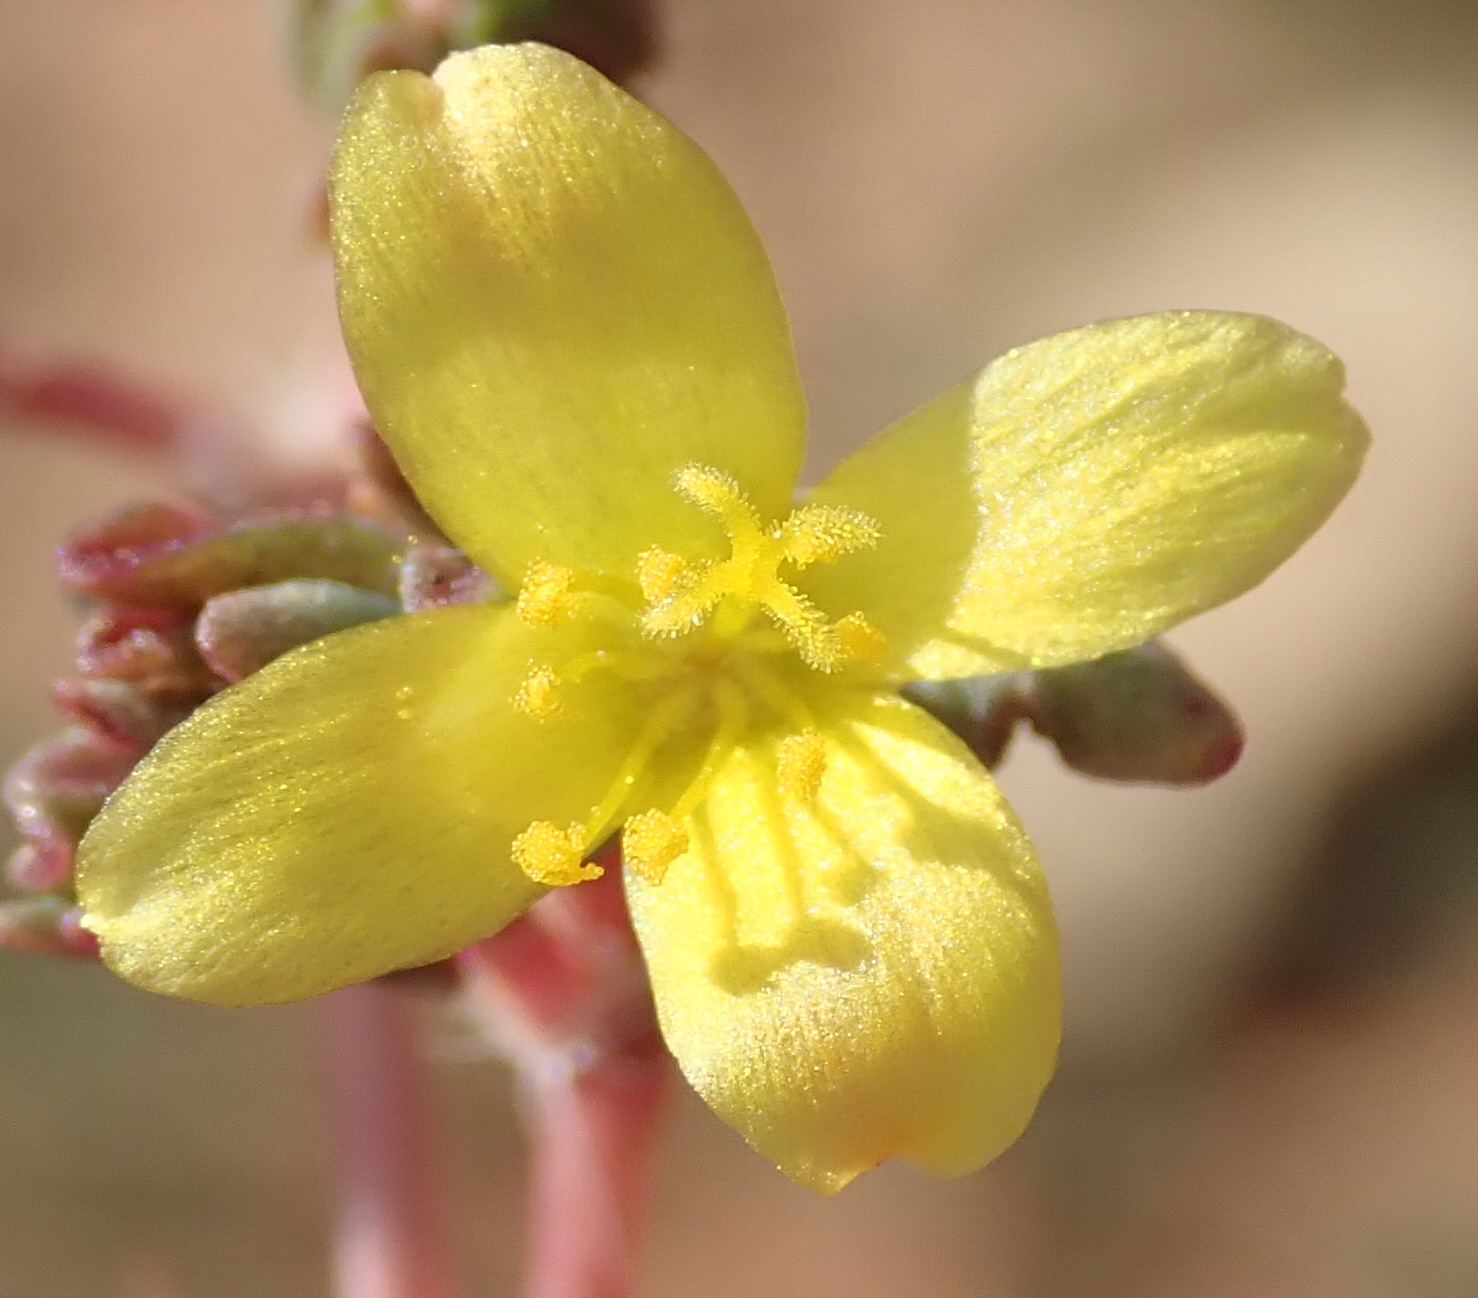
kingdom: Plantae
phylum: Tracheophyta
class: Magnoliopsida
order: Caryophyllales
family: Portulacaceae
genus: Portulaca
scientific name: Portulaca quadrifida
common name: Chickenweed
